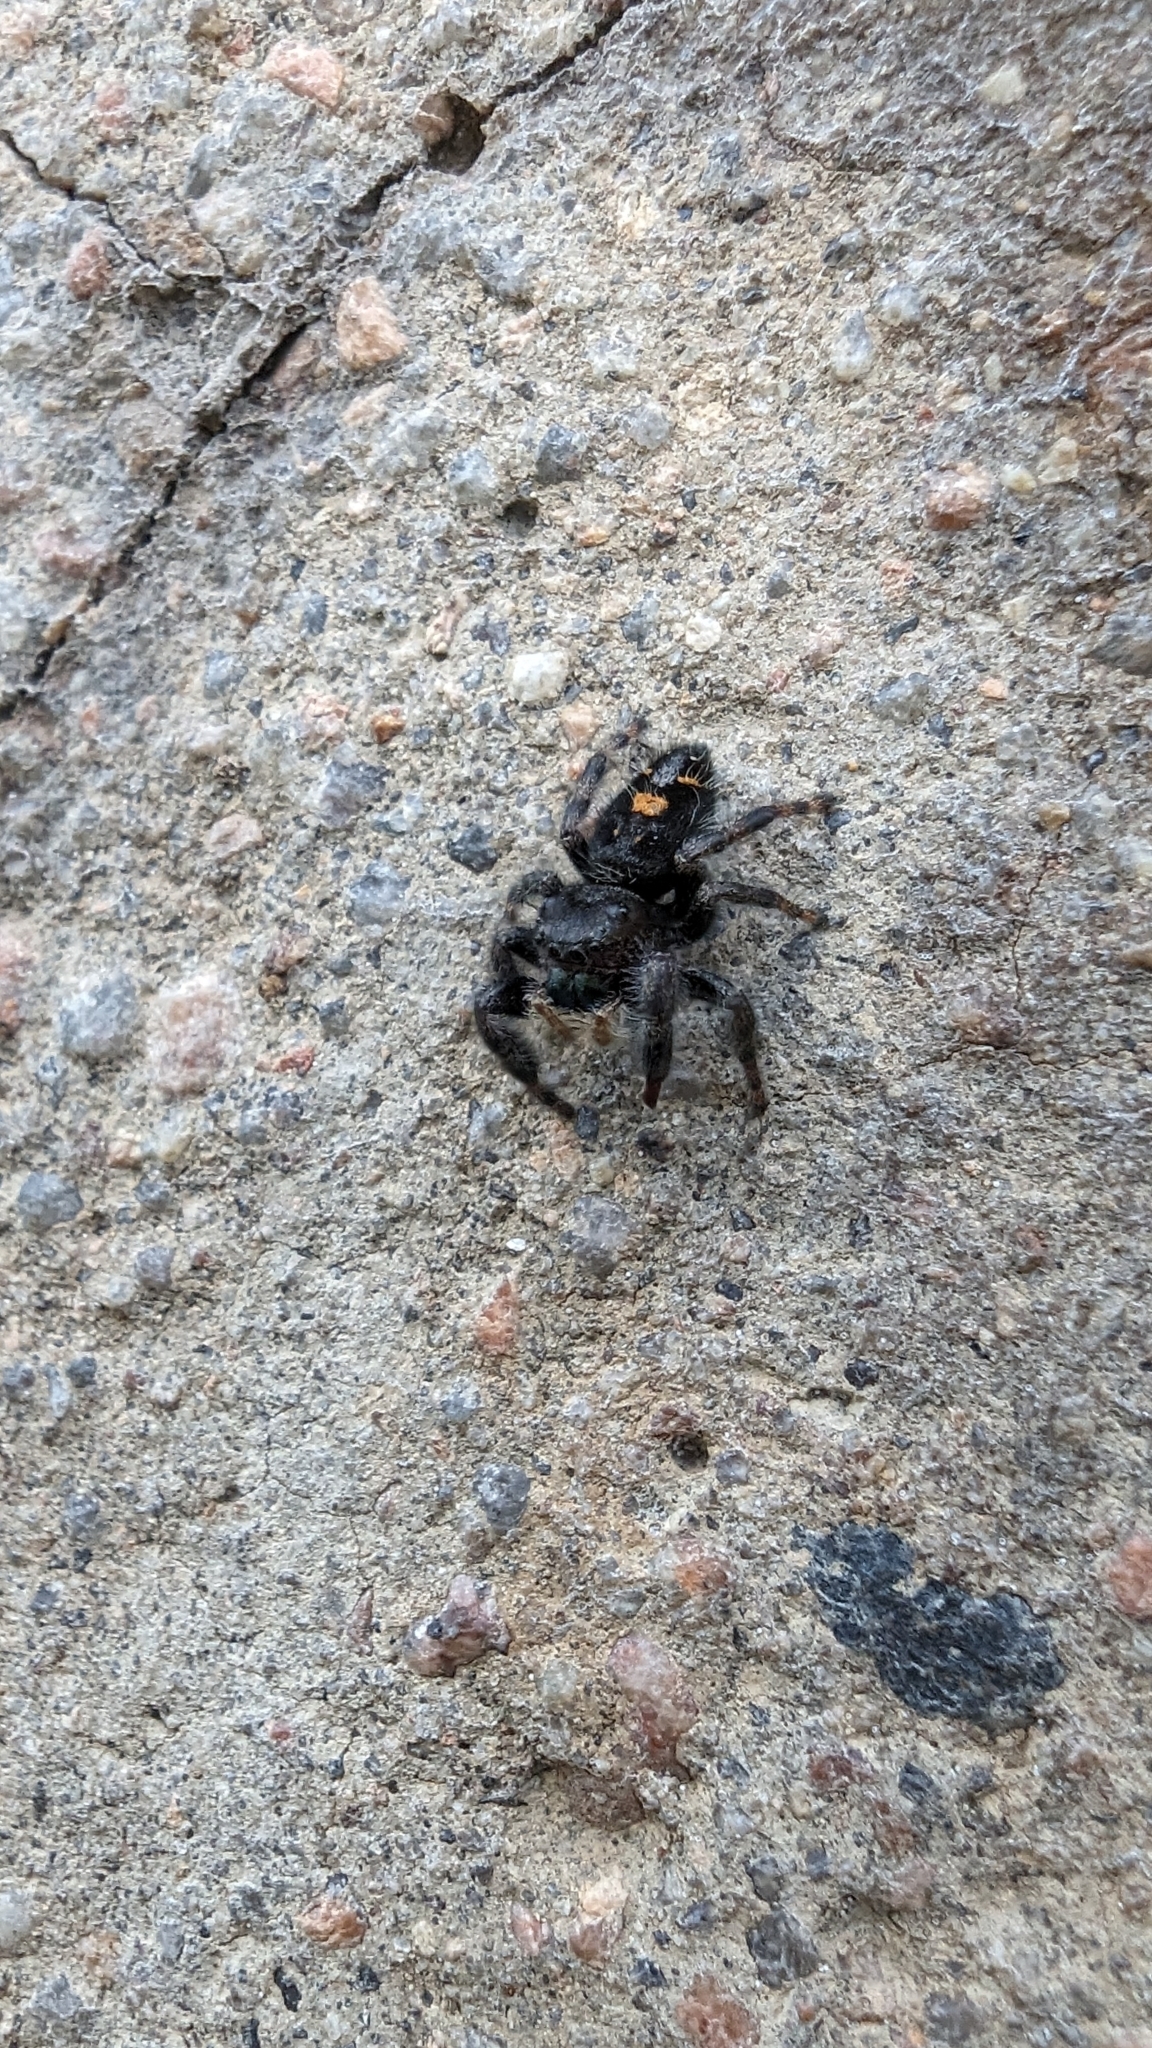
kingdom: Animalia
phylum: Arthropoda
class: Arachnida
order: Araneae
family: Salticidae
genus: Phidippus
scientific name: Phidippus audax
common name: Bold jumper
